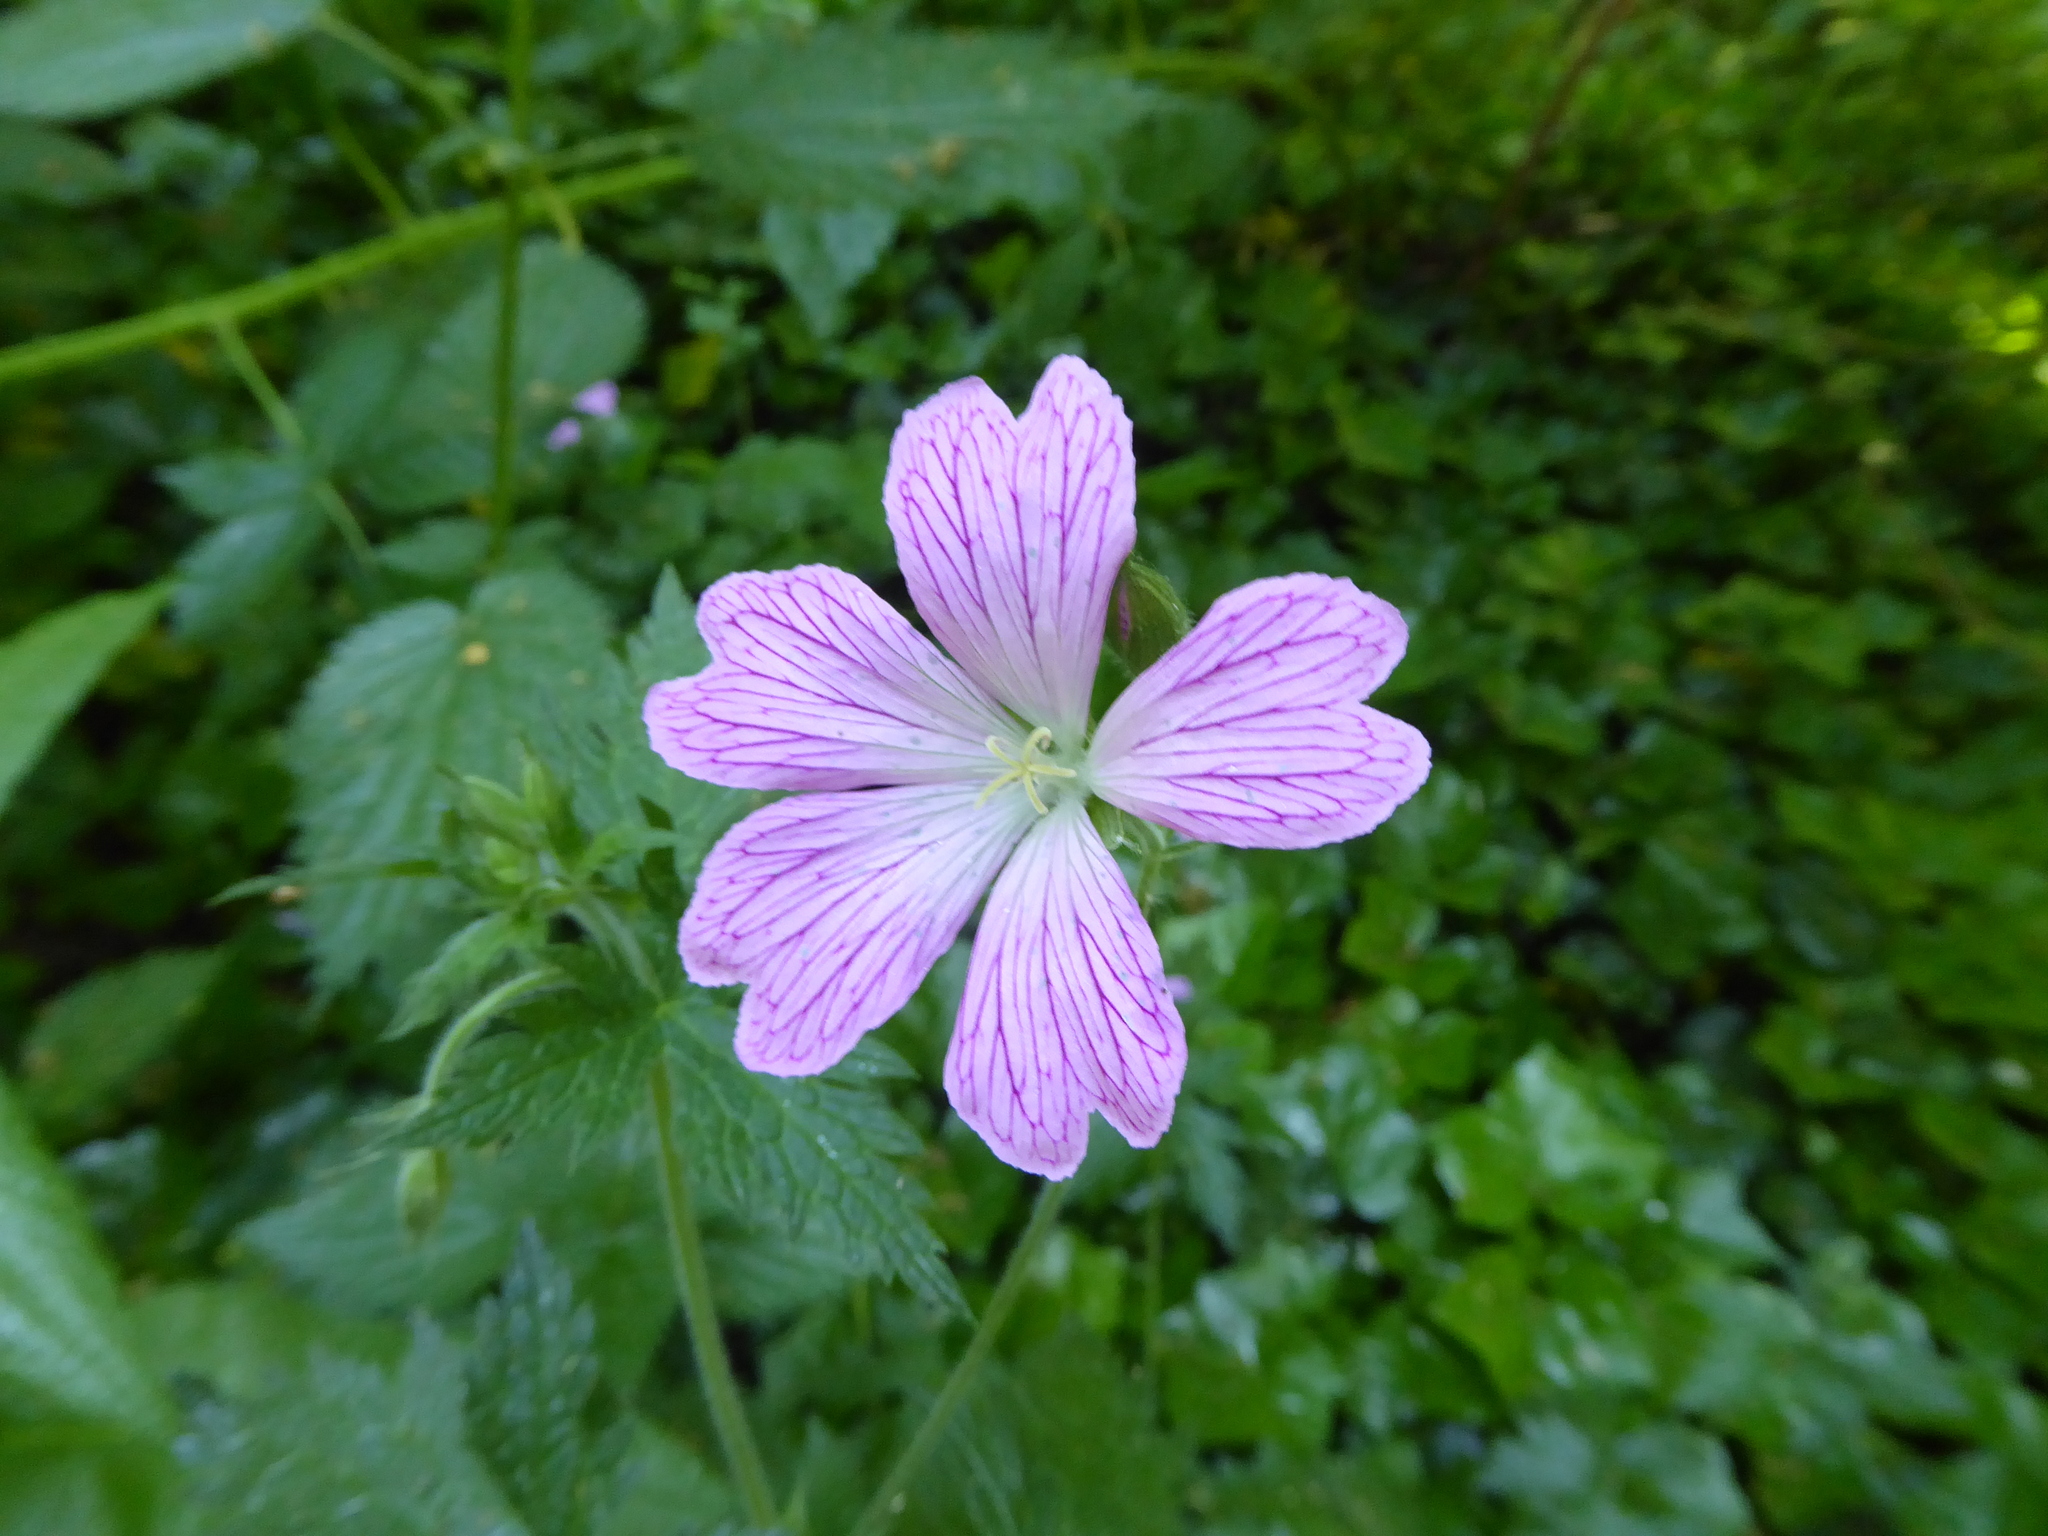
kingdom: Plantae
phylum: Tracheophyta
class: Magnoliopsida
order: Geraniales
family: Geraniaceae
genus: Geranium
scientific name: Geranium oxonianum
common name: Druce's crane's-bill
